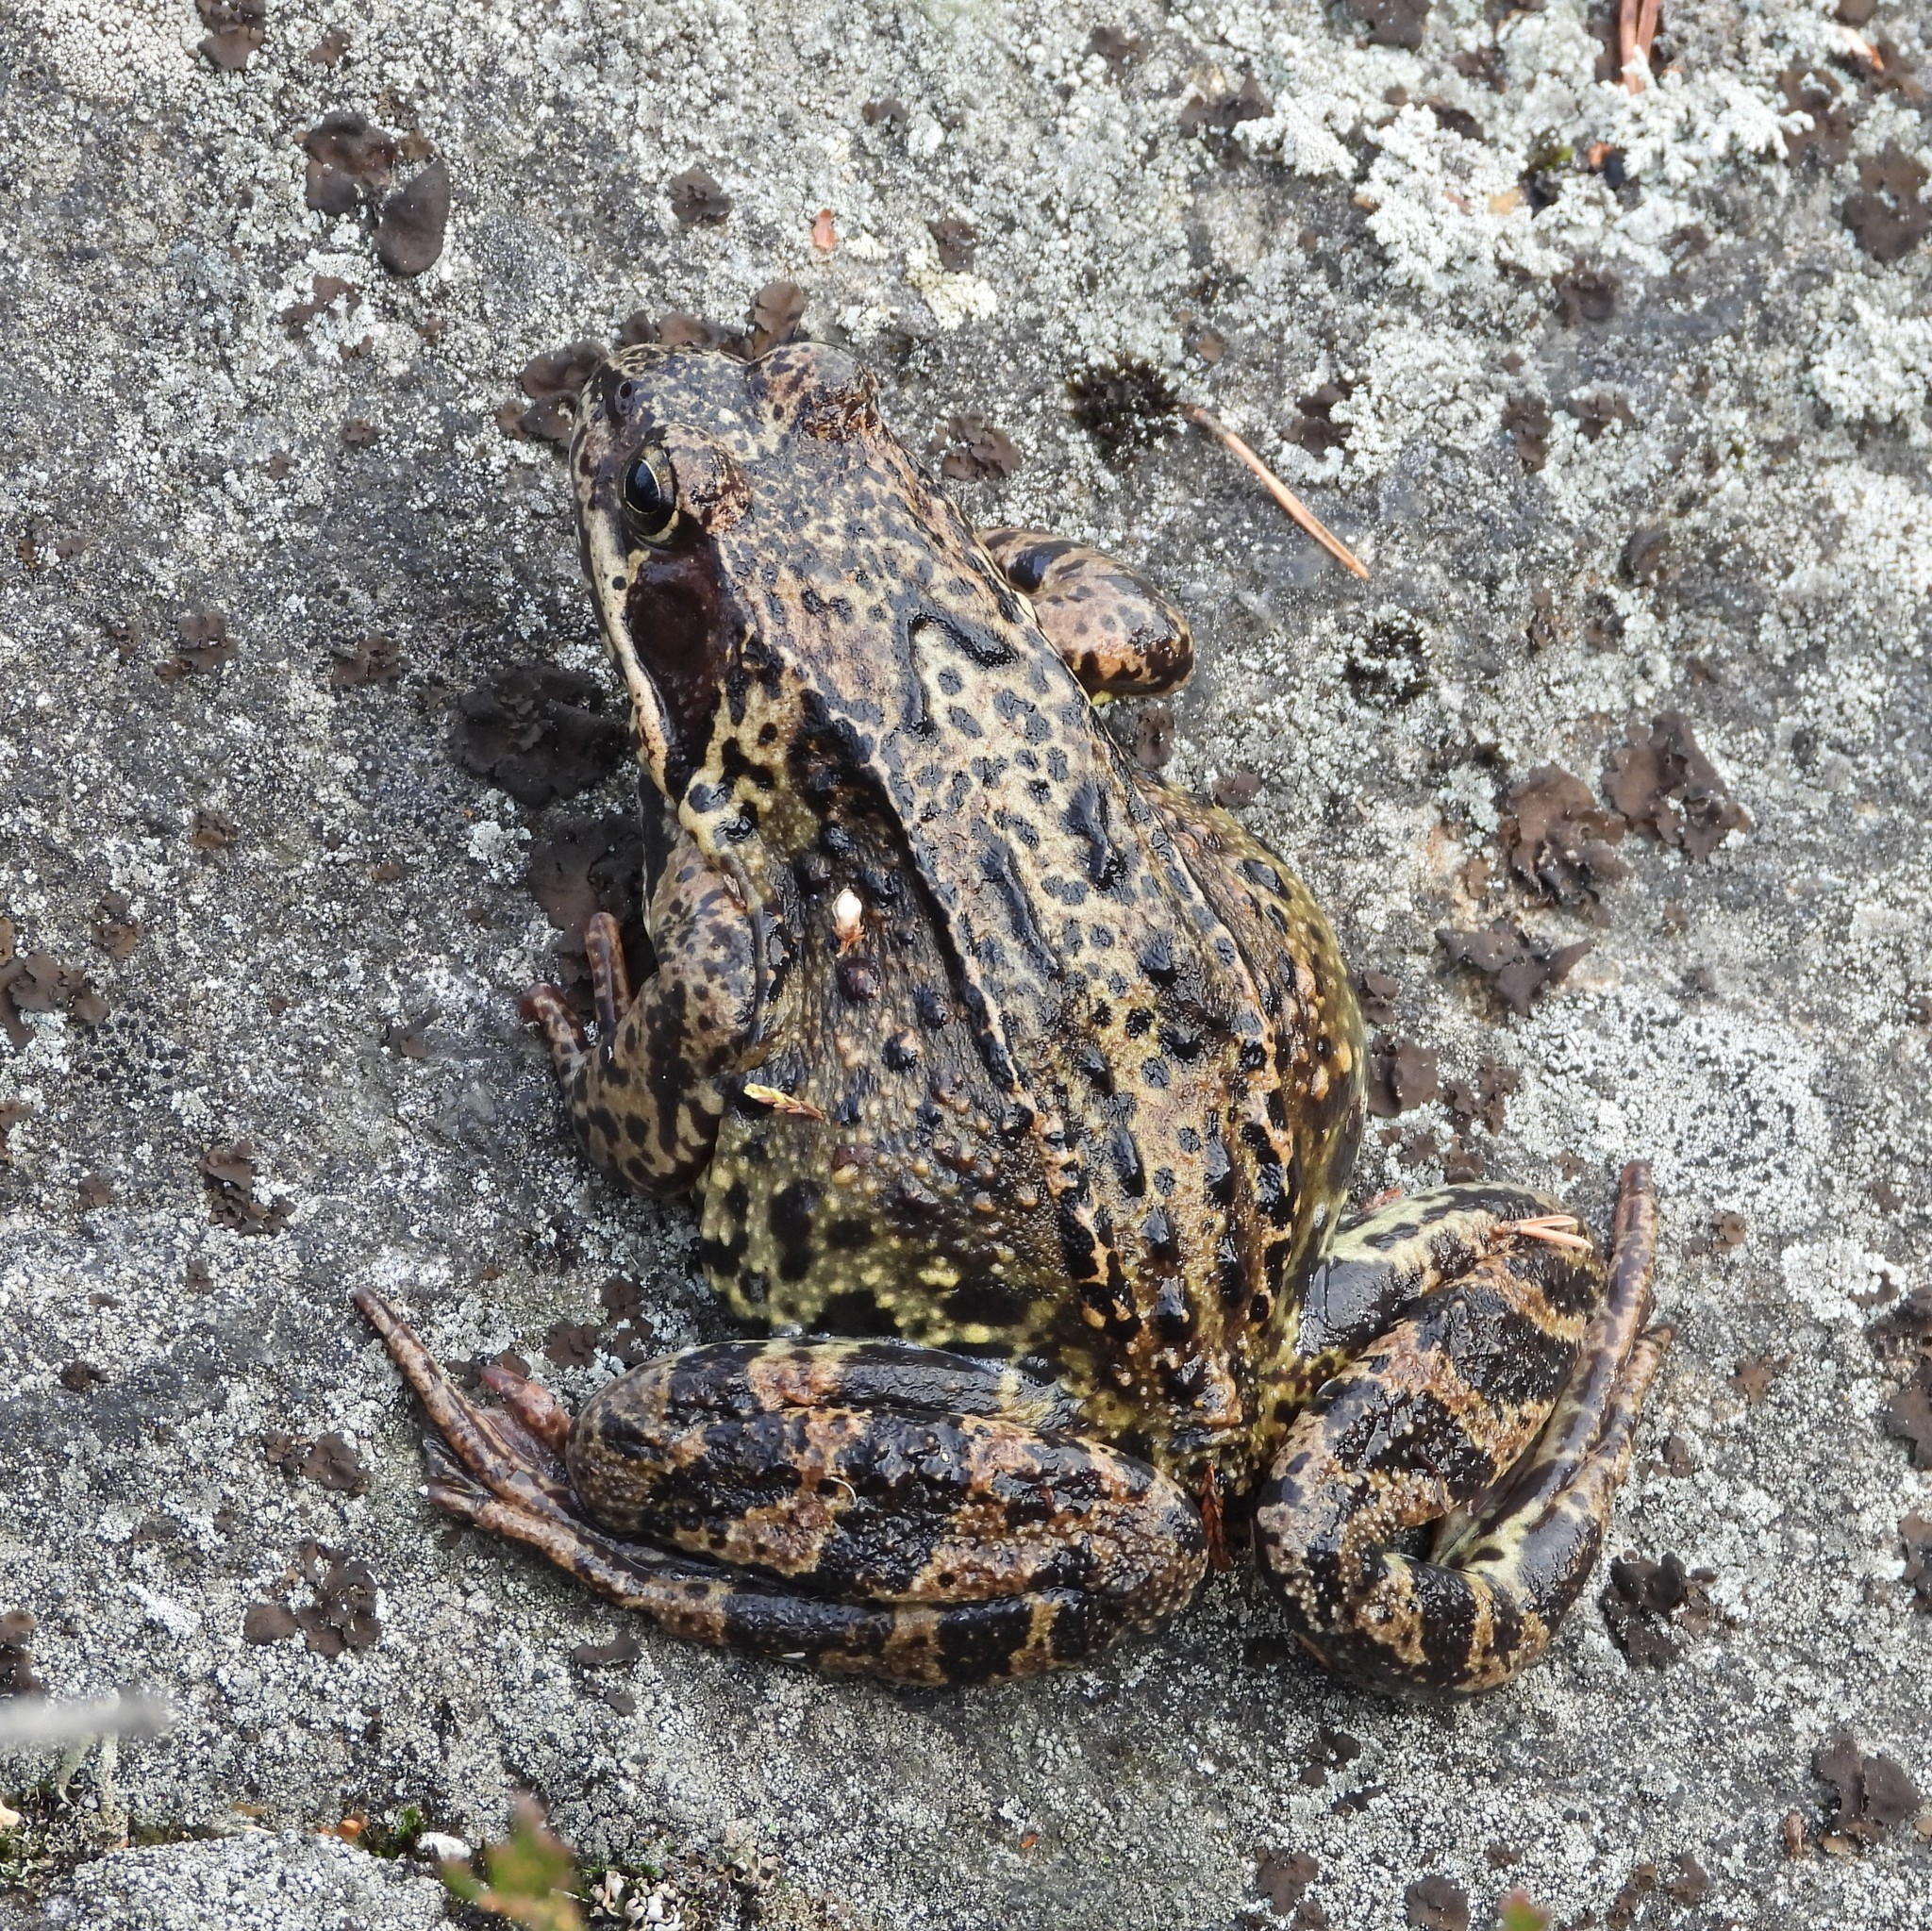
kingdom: Animalia
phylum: Chordata
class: Amphibia
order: Anura
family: Ranidae
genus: Rana
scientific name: Rana temporaria
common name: Common frog
